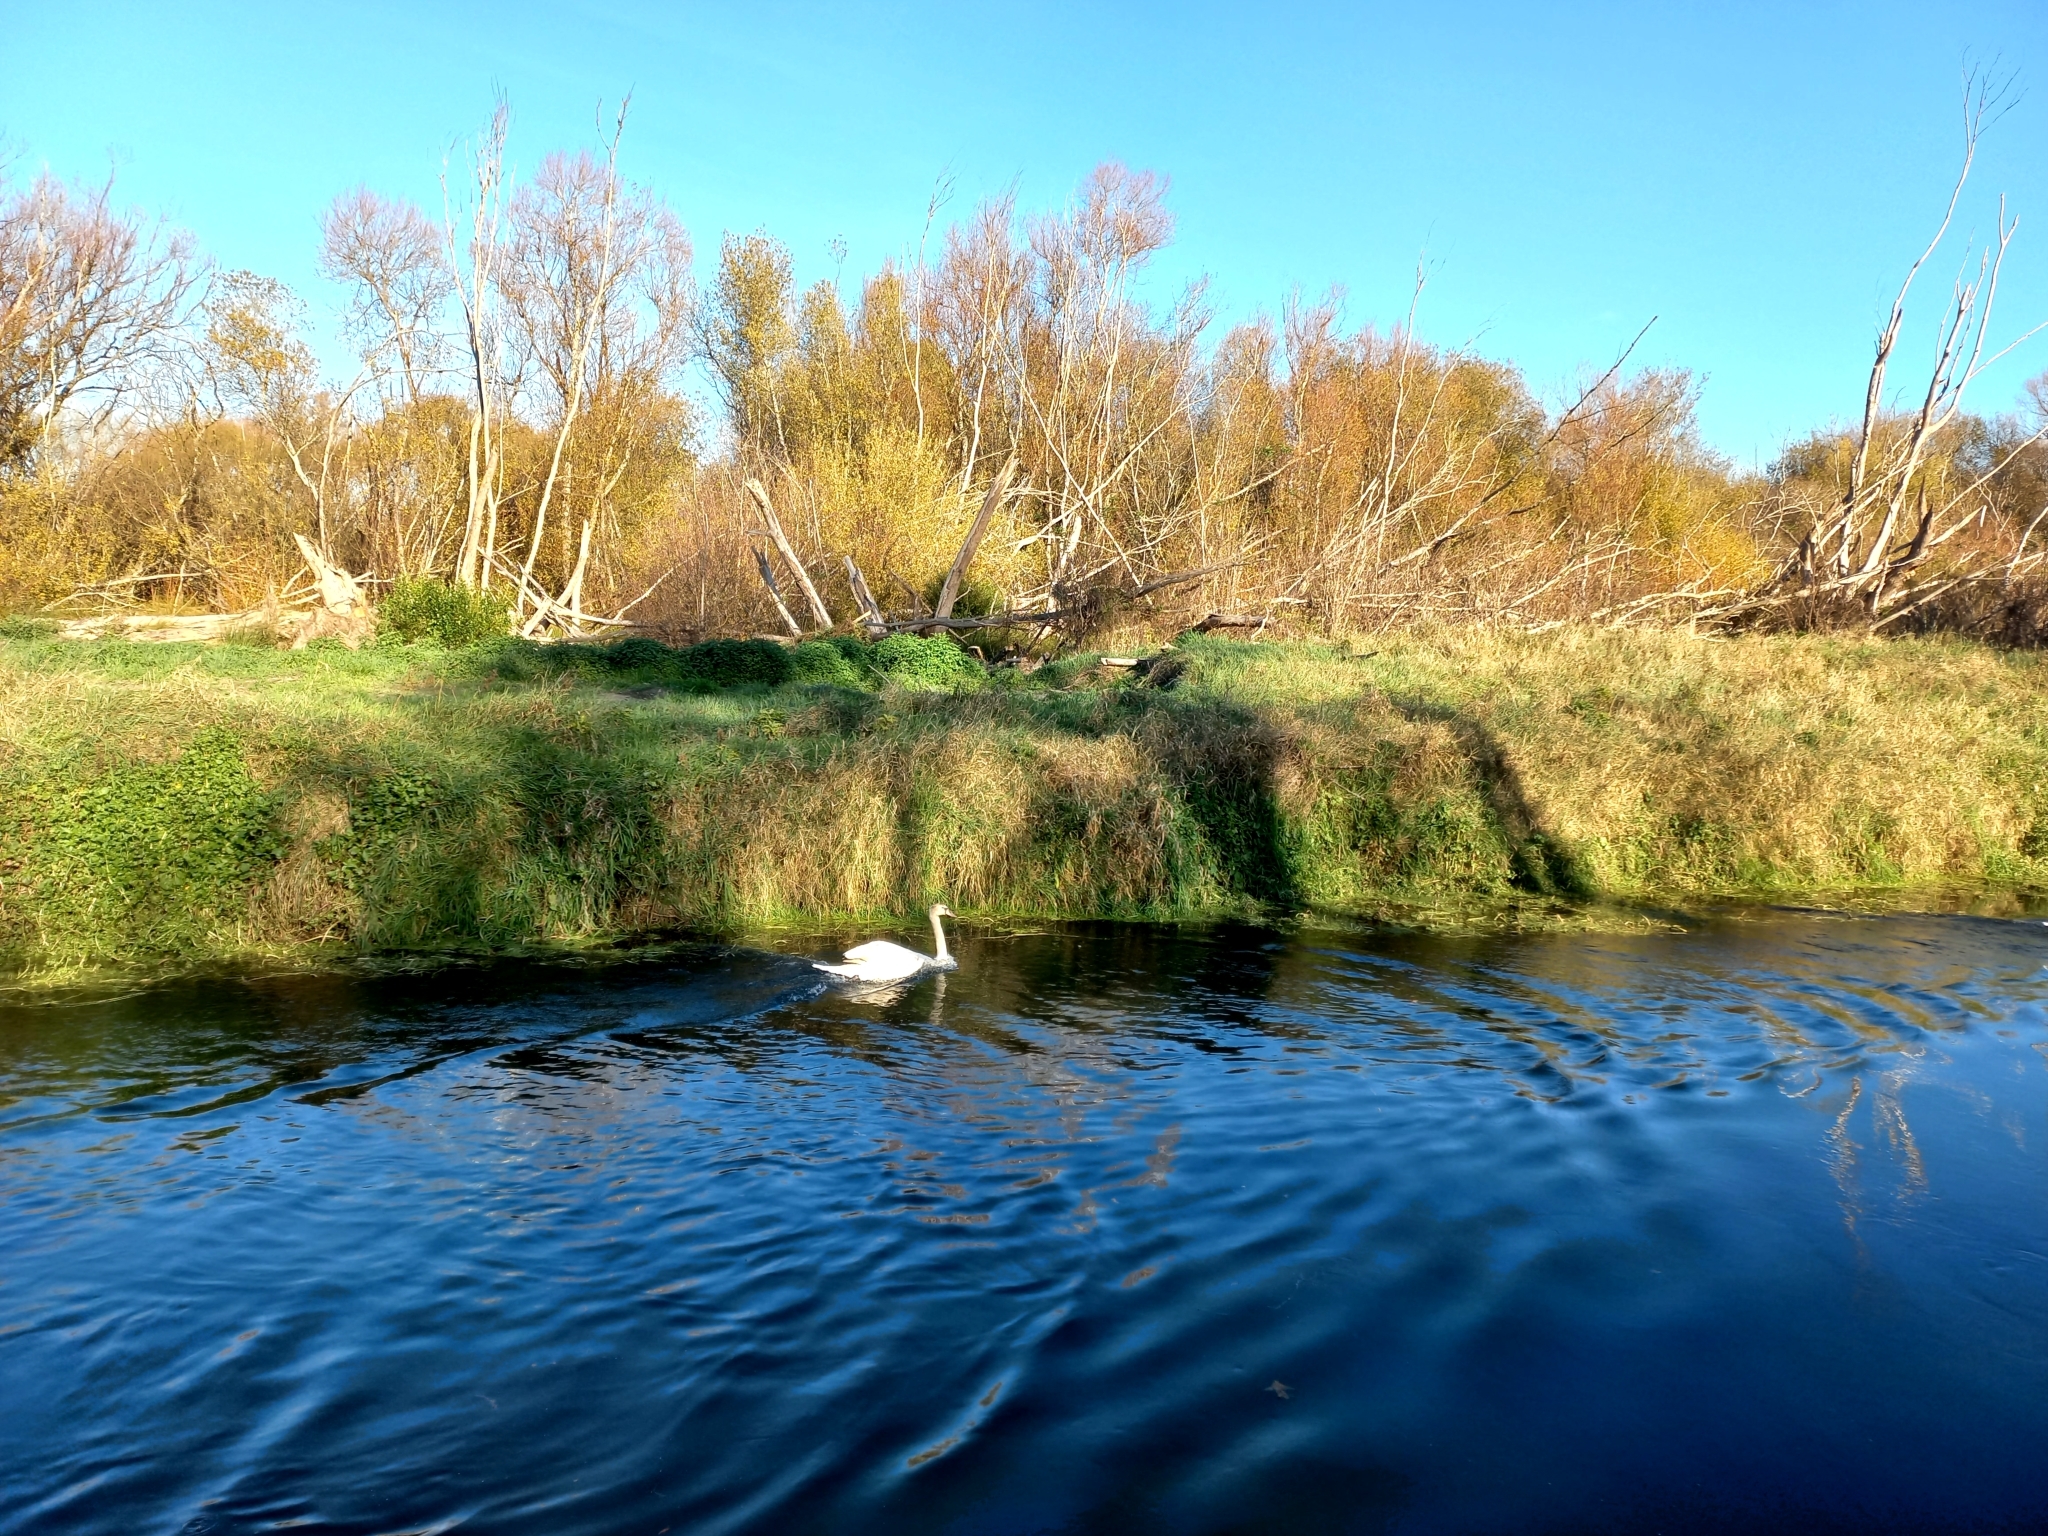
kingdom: Animalia
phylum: Chordata
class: Aves
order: Anseriformes
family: Anatidae
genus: Cygnus
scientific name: Cygnus olor
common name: Mute swan
